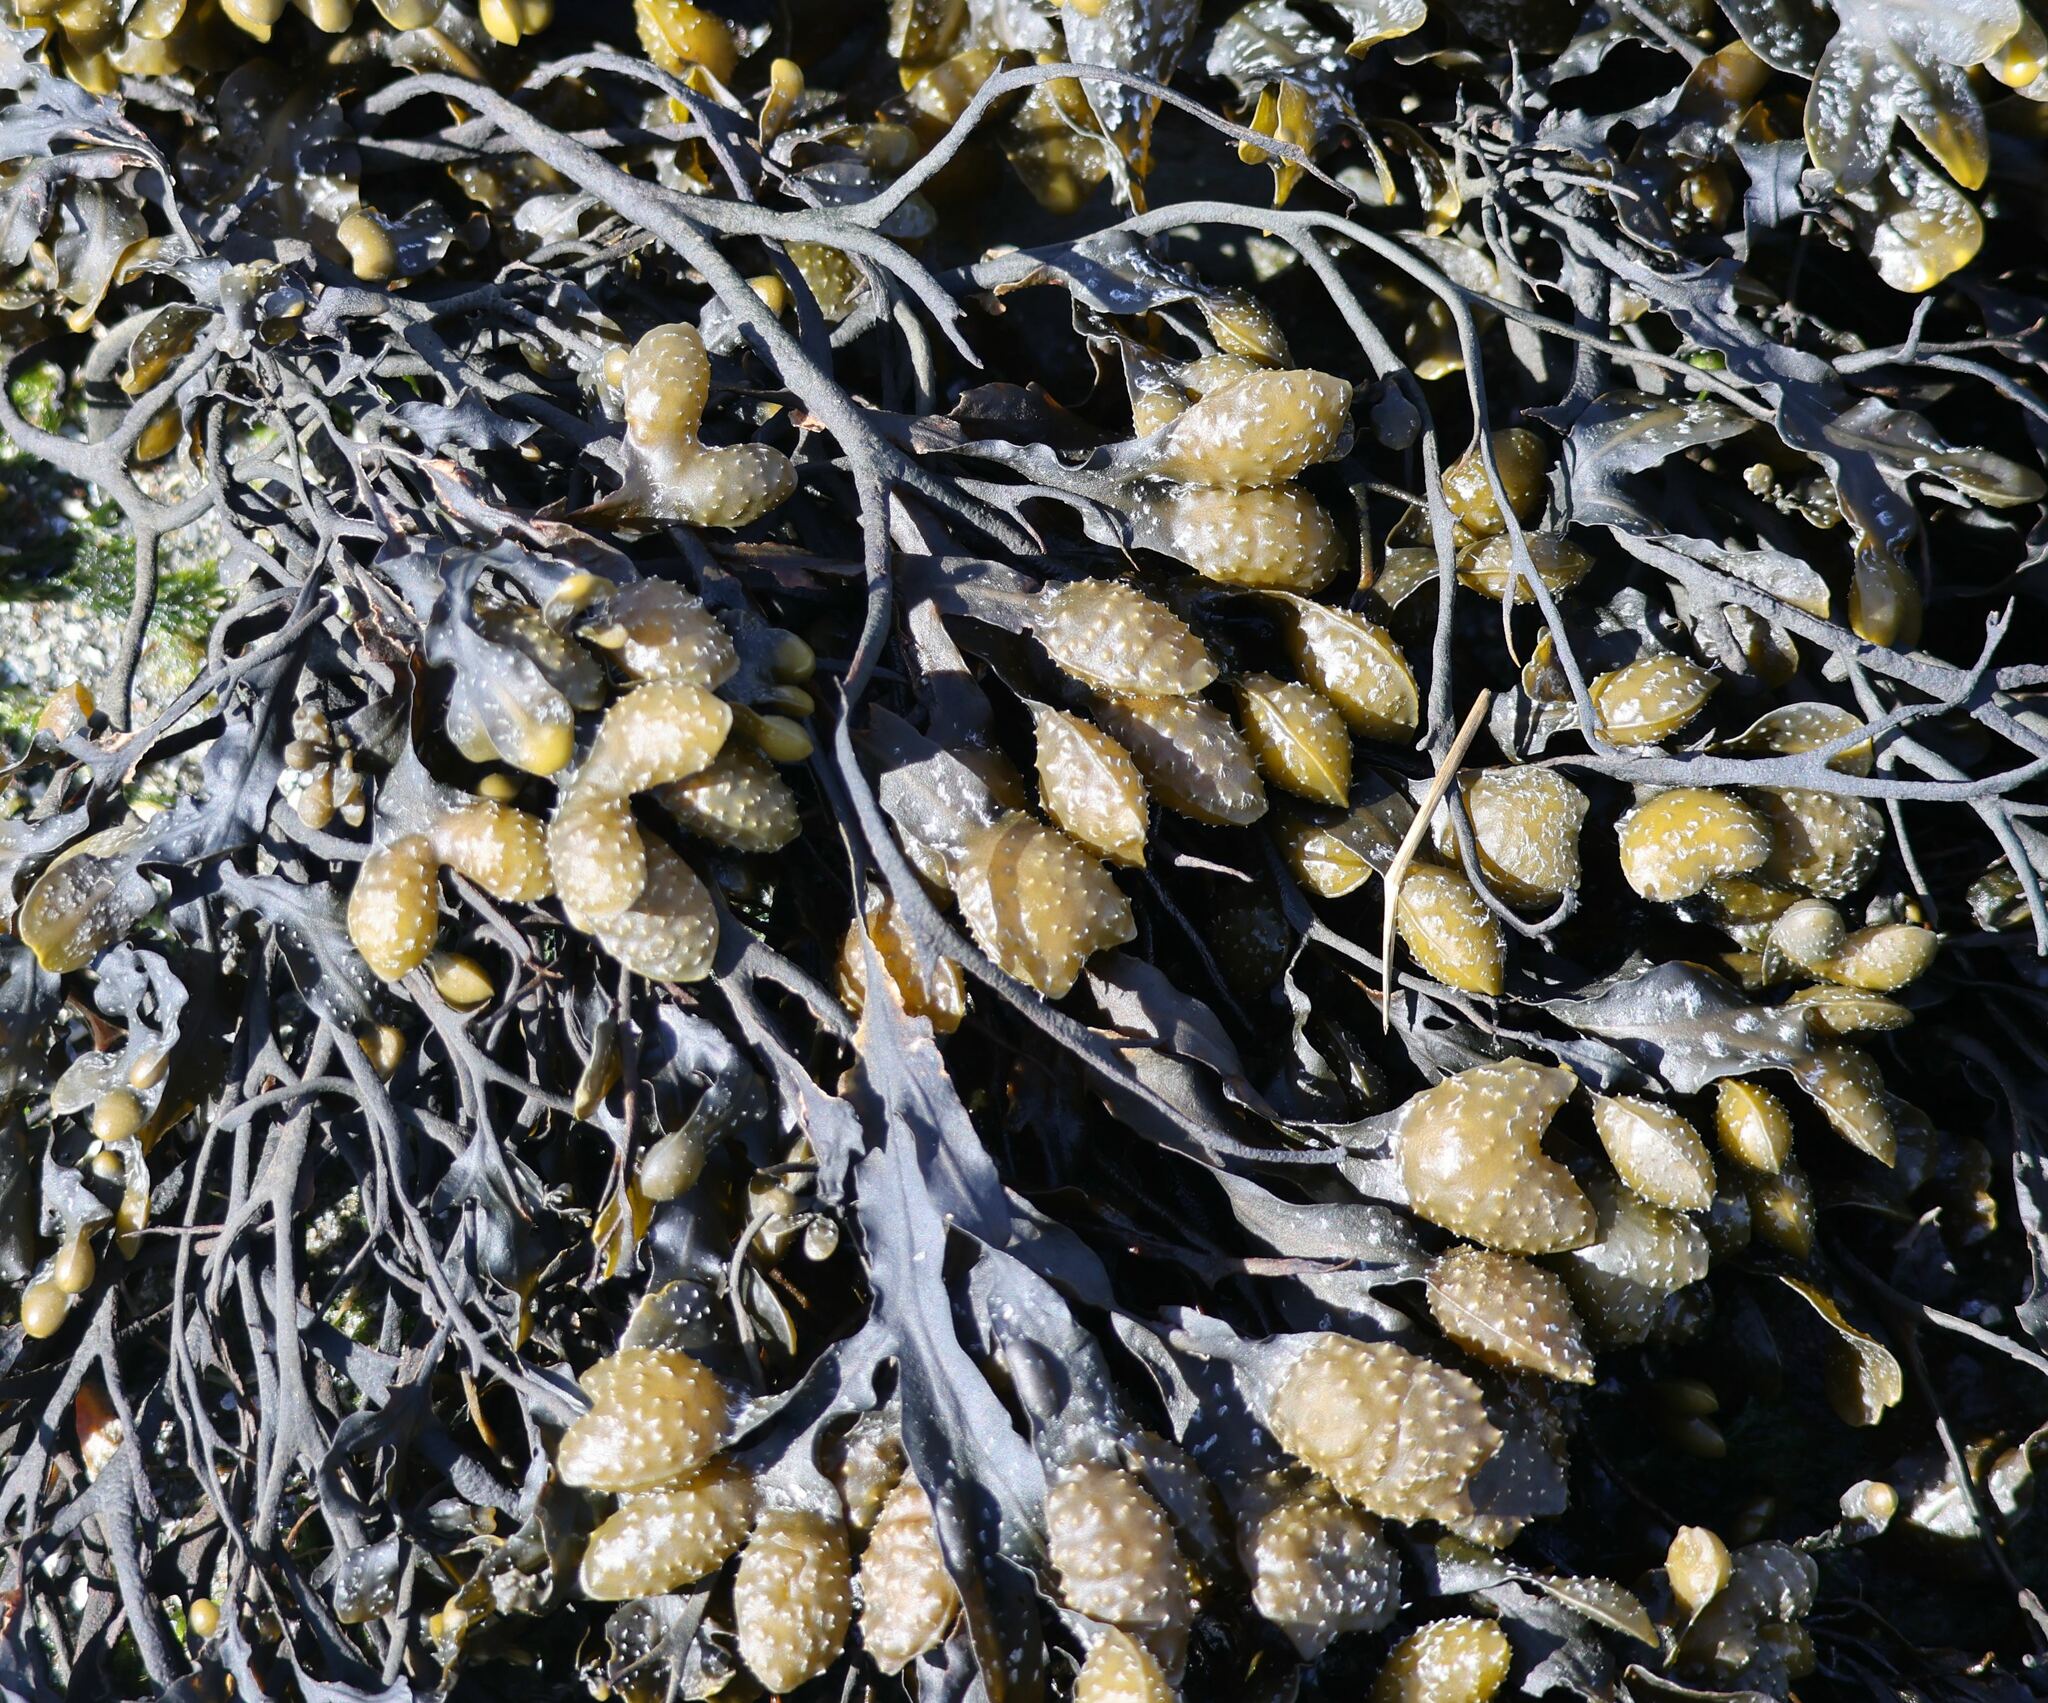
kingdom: Chromista
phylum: Ochrophyta
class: Phaeophyceae
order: Fucales
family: Fucaceae
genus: Fucus
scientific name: Fucus spiralis
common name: Spiral wrack
